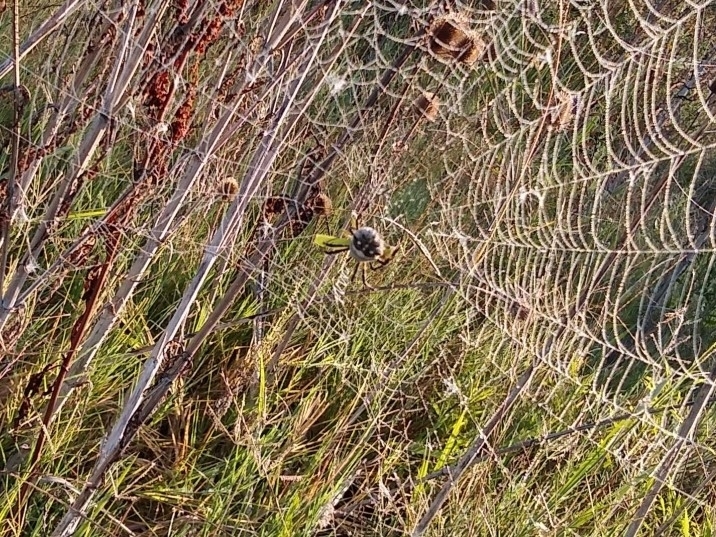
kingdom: Animalia
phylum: Arthropoda
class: Arachnida
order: Araneae
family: Araneidae
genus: Argiope
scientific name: Argiope argentata
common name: Orb weavers
